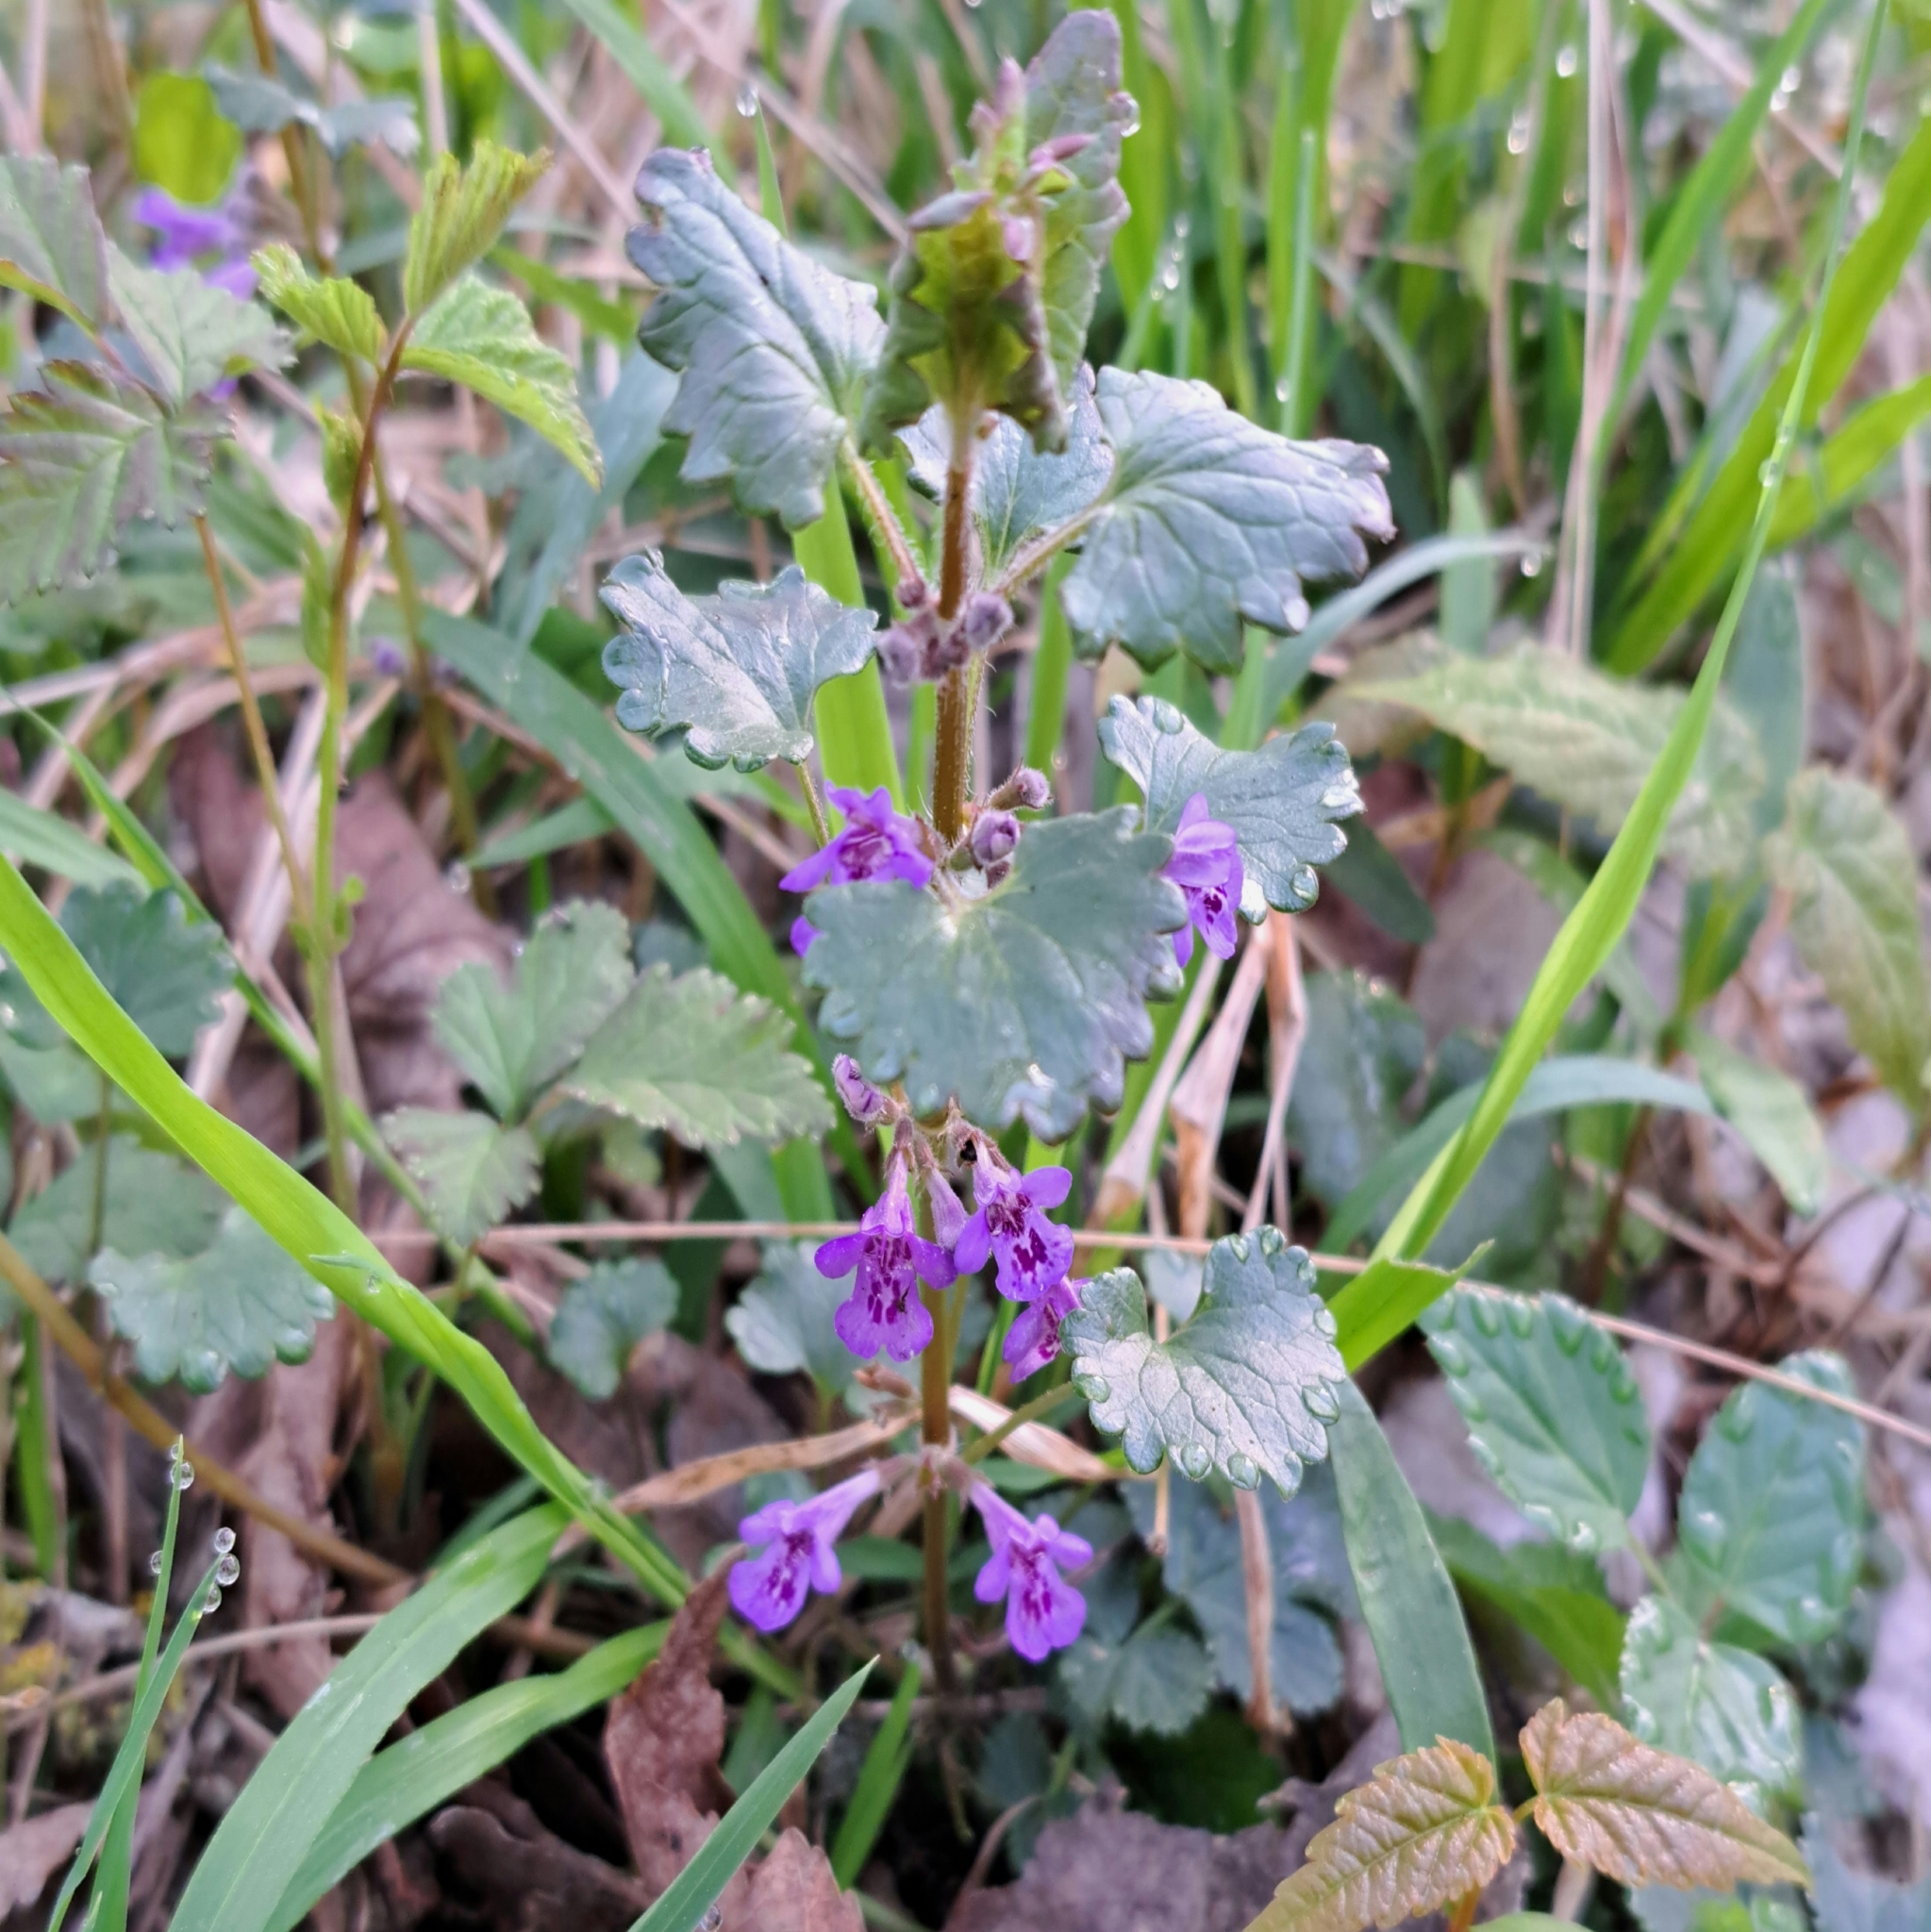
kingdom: Plantae
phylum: Tracheophyta
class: Magnoliopsida
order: Lamiales
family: Lamiaceae
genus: Glechoma
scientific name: Glechoma hederacea
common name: Ground ivy
